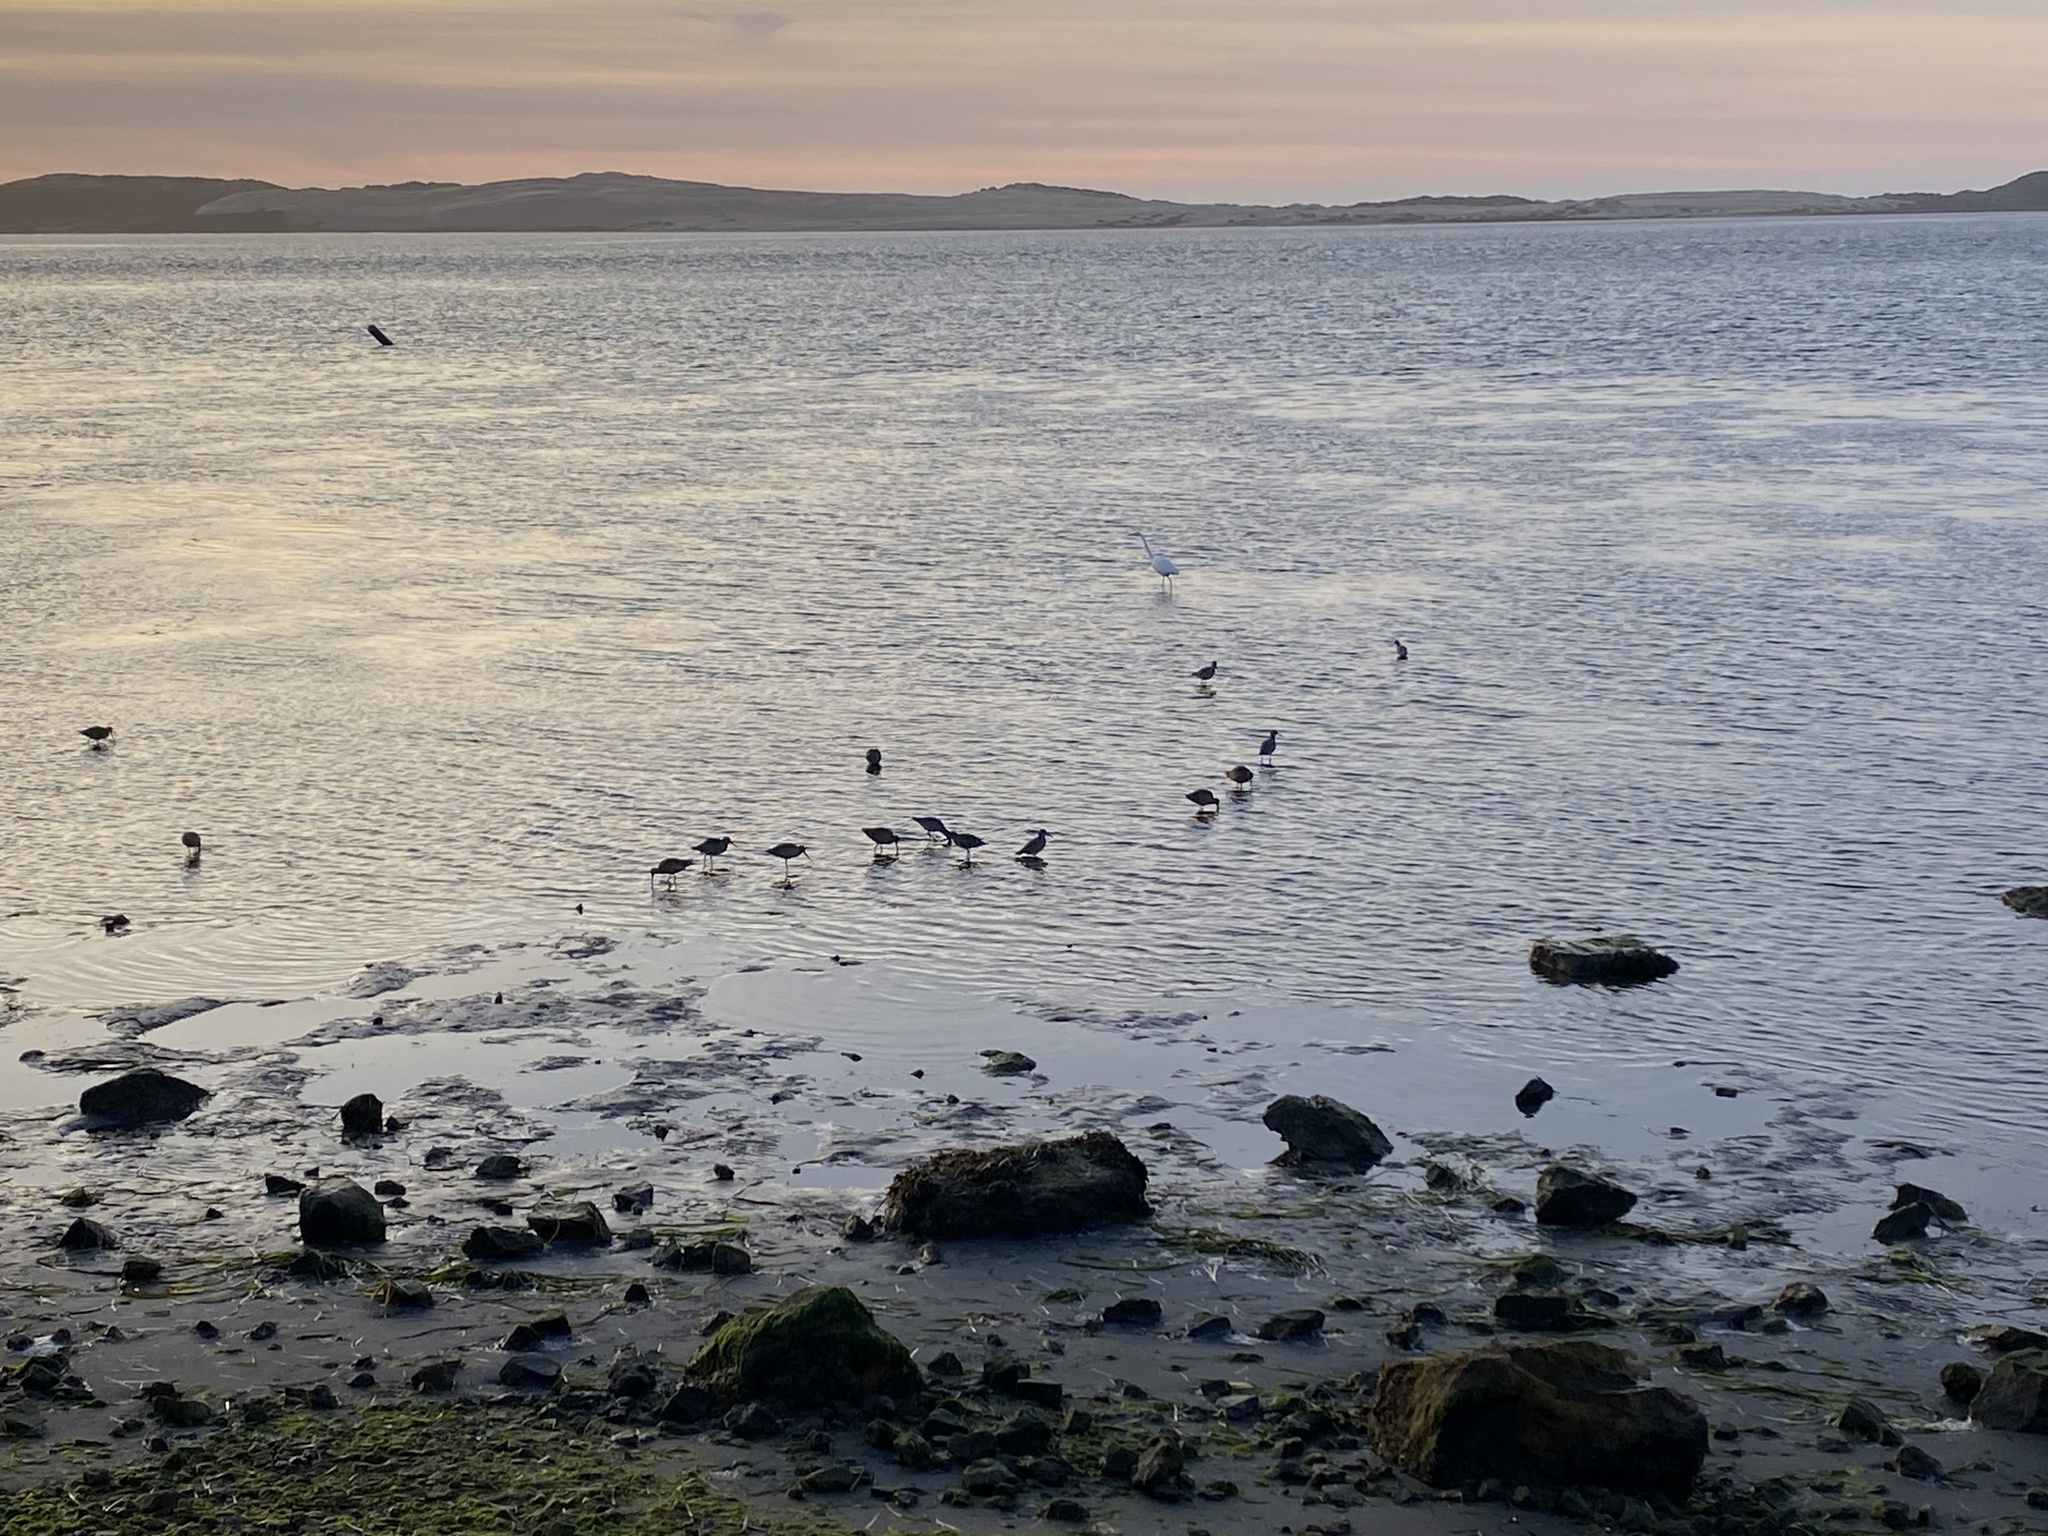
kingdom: Animalia
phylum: Chordata
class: Aves
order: Charadriiformes
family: Scolopacidae
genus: Limosa
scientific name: Limosa fedoa
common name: Marbled godwit
